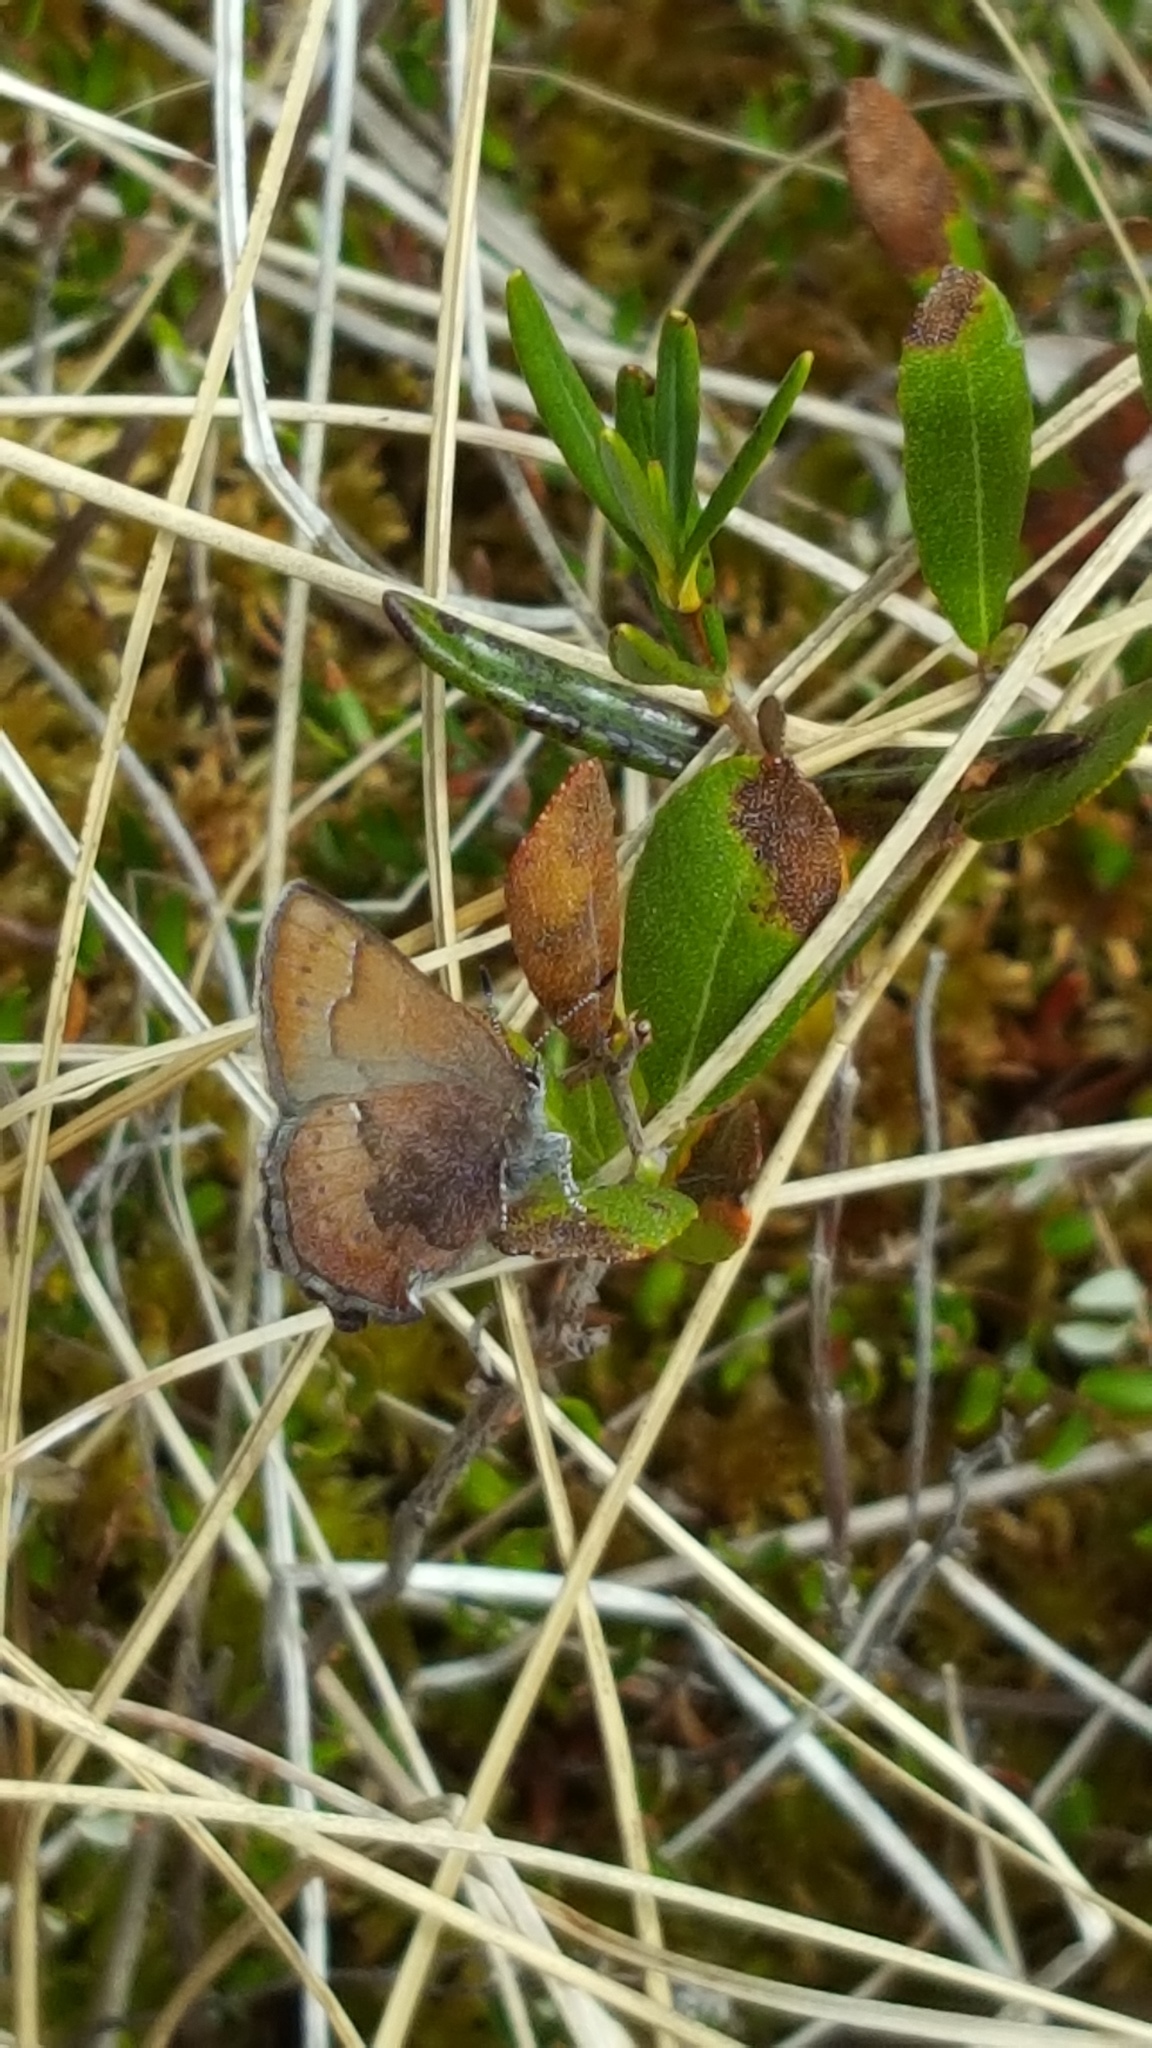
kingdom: Animalia
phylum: Arthropoda
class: Insecta
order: Lepidoptera
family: Lycaenidae
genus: Incisalia
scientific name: Incisalia irioides
